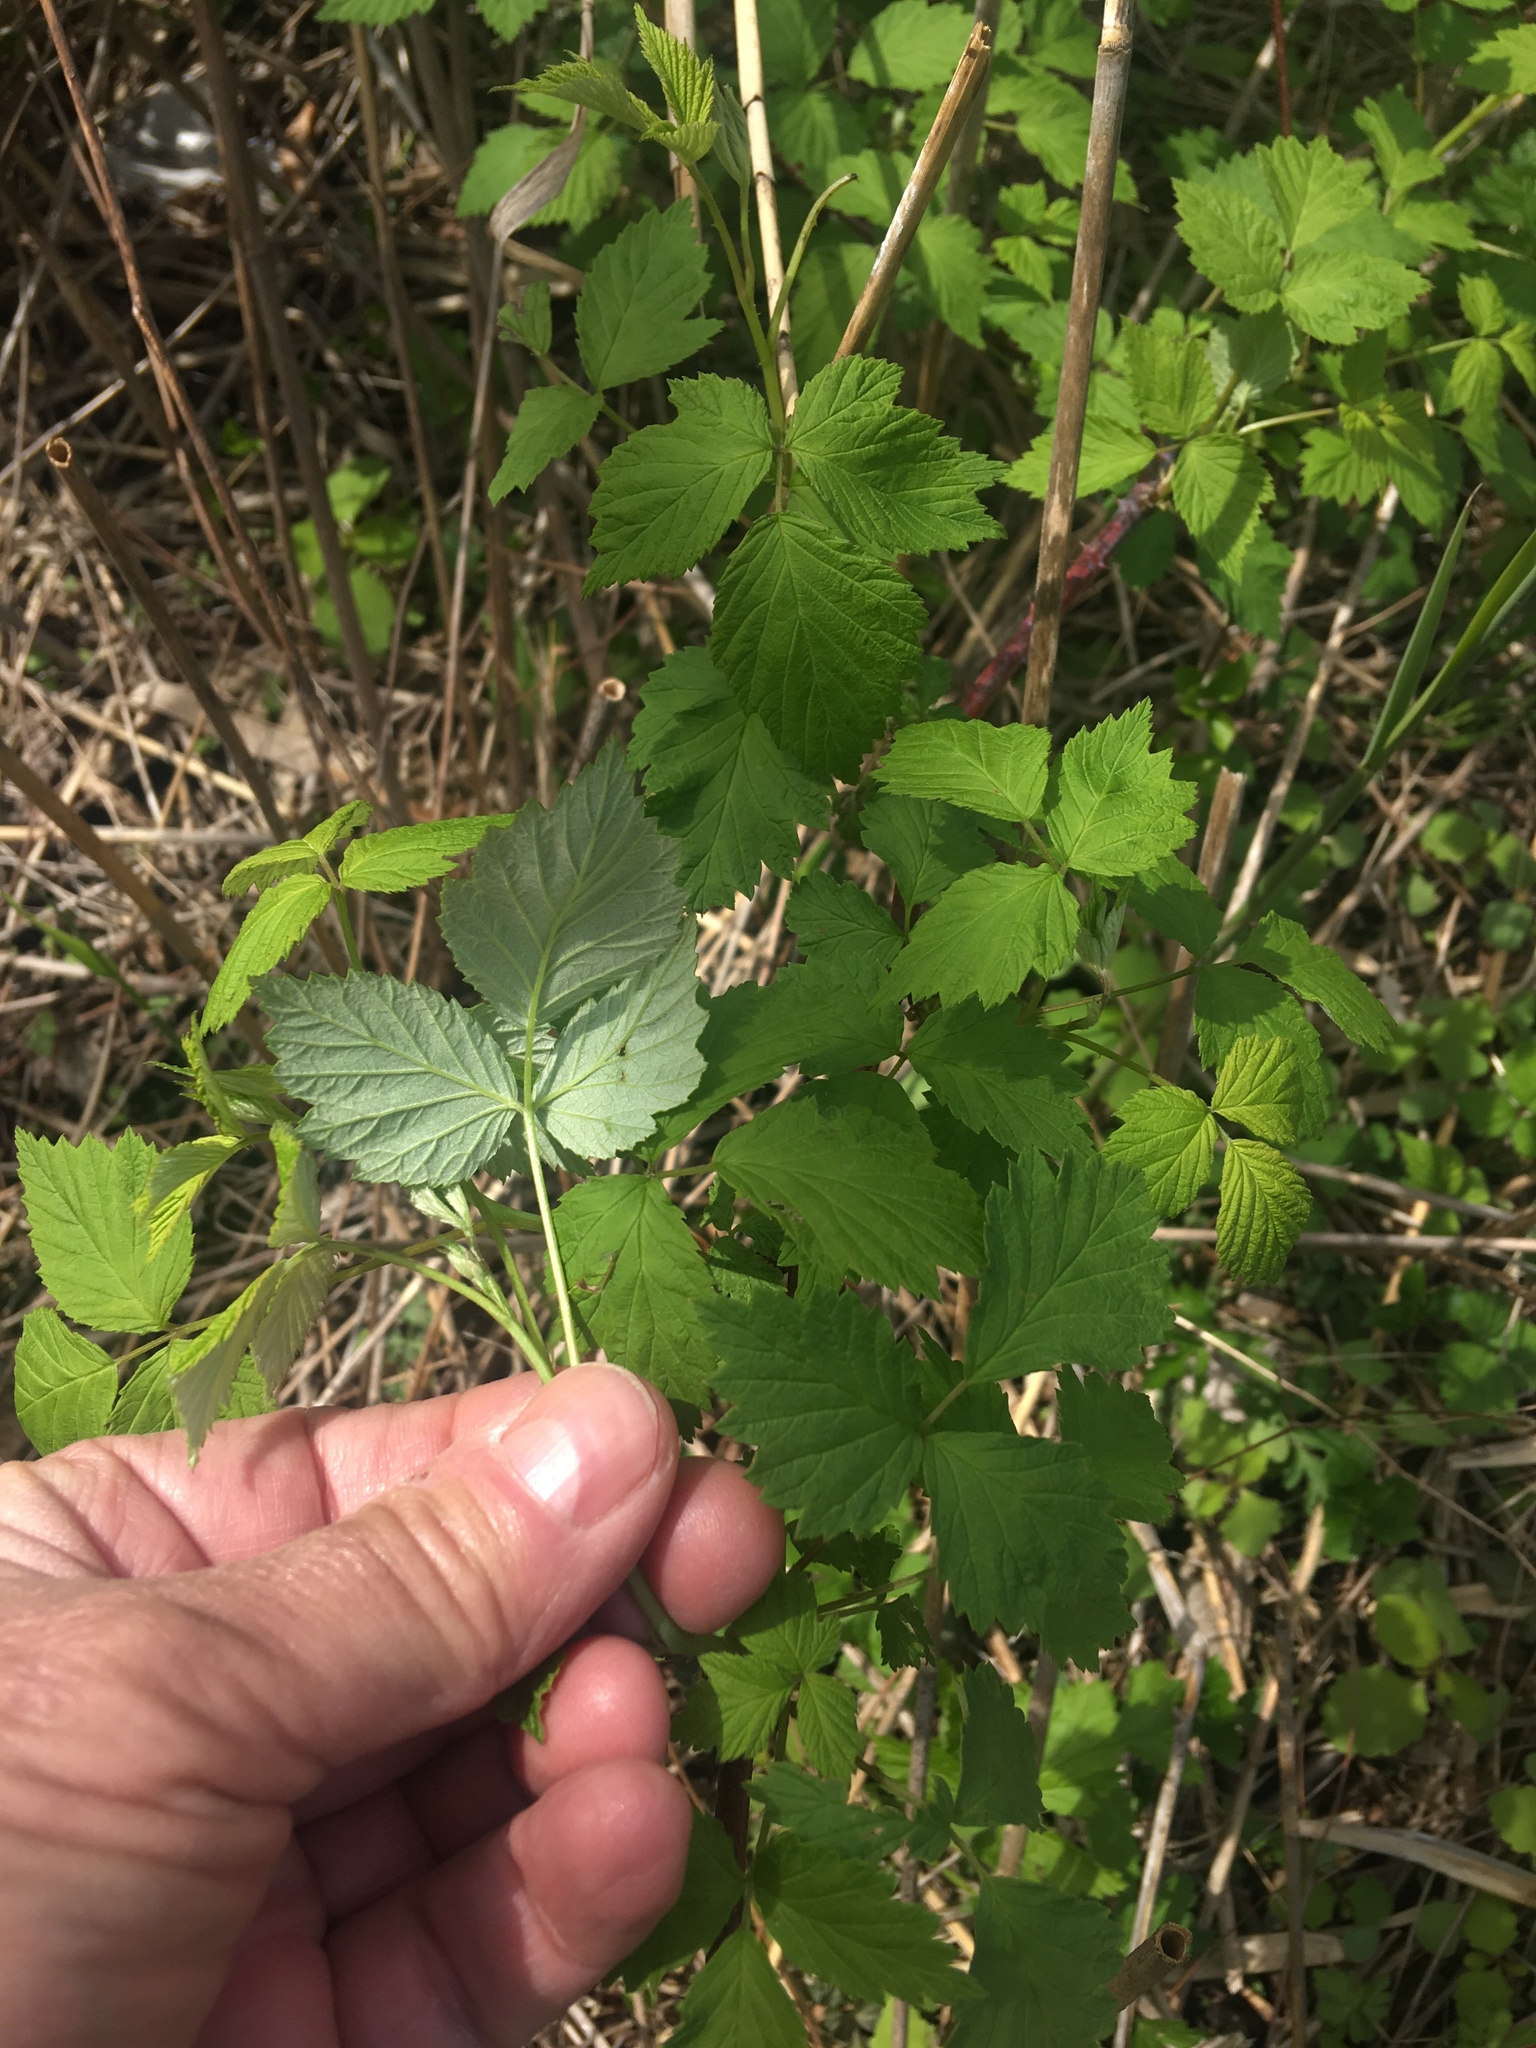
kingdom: Plantae
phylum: Tracheophyta
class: Magnoliopsida
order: Rosales
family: Rosaceae
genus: Rubus
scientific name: Rubus occidentalis
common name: Black raspberry
